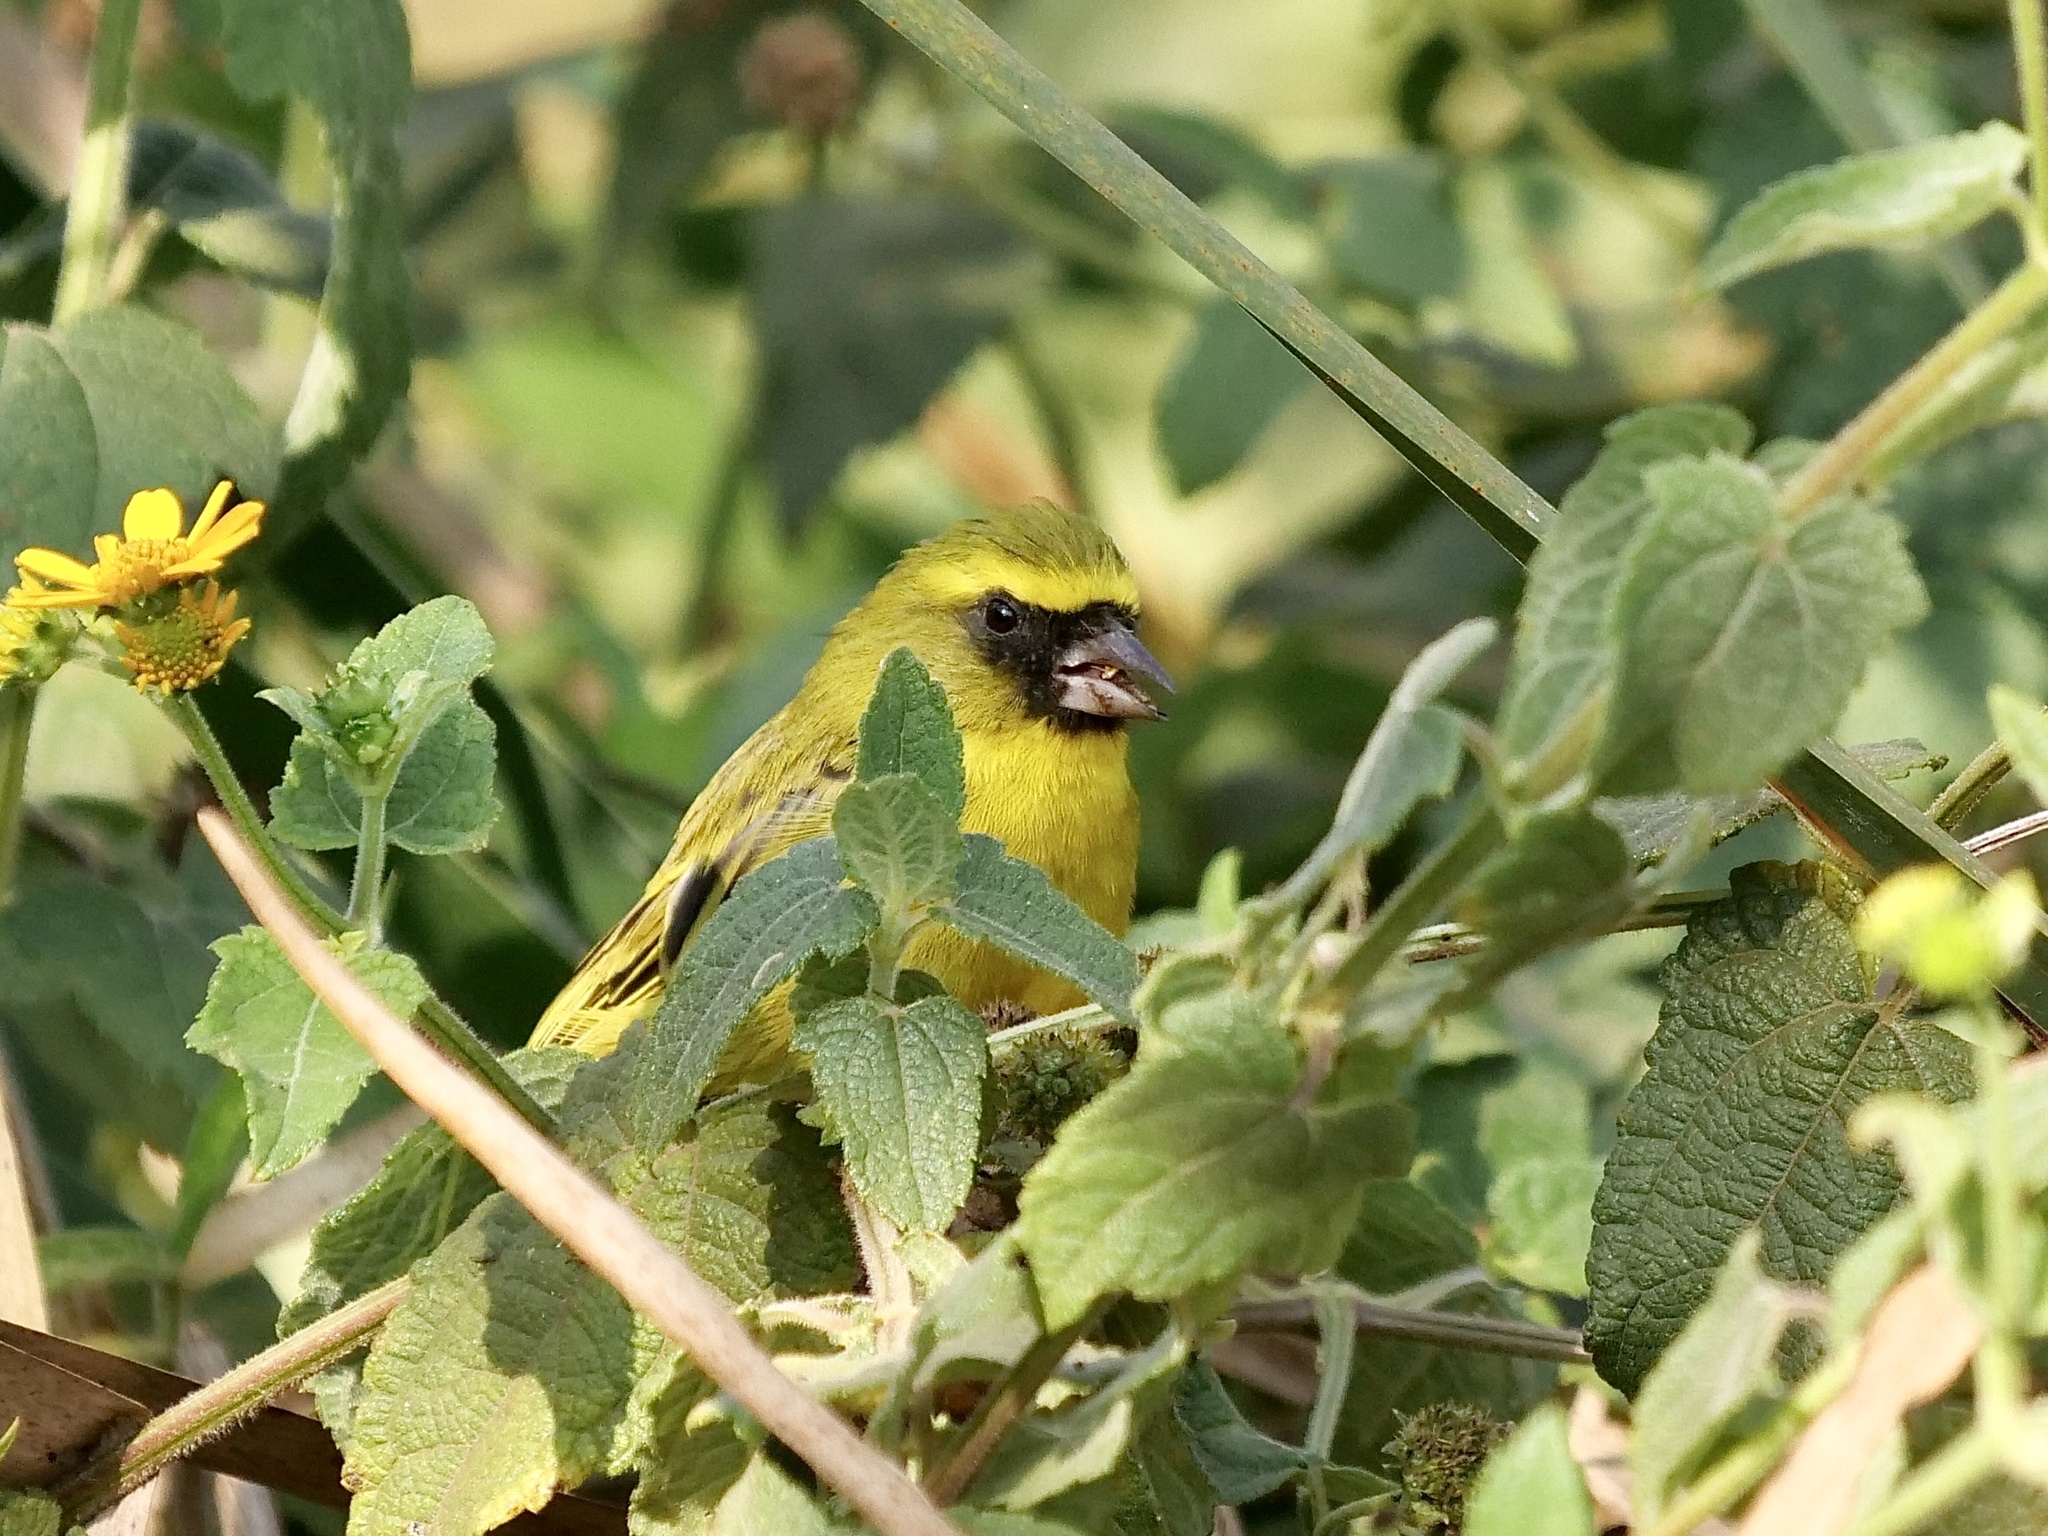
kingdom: Animalia
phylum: Chordata
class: Aves
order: Passeriformes
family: Fringillidae
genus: Crithagra
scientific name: Crithagra frontalis
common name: Western citril
